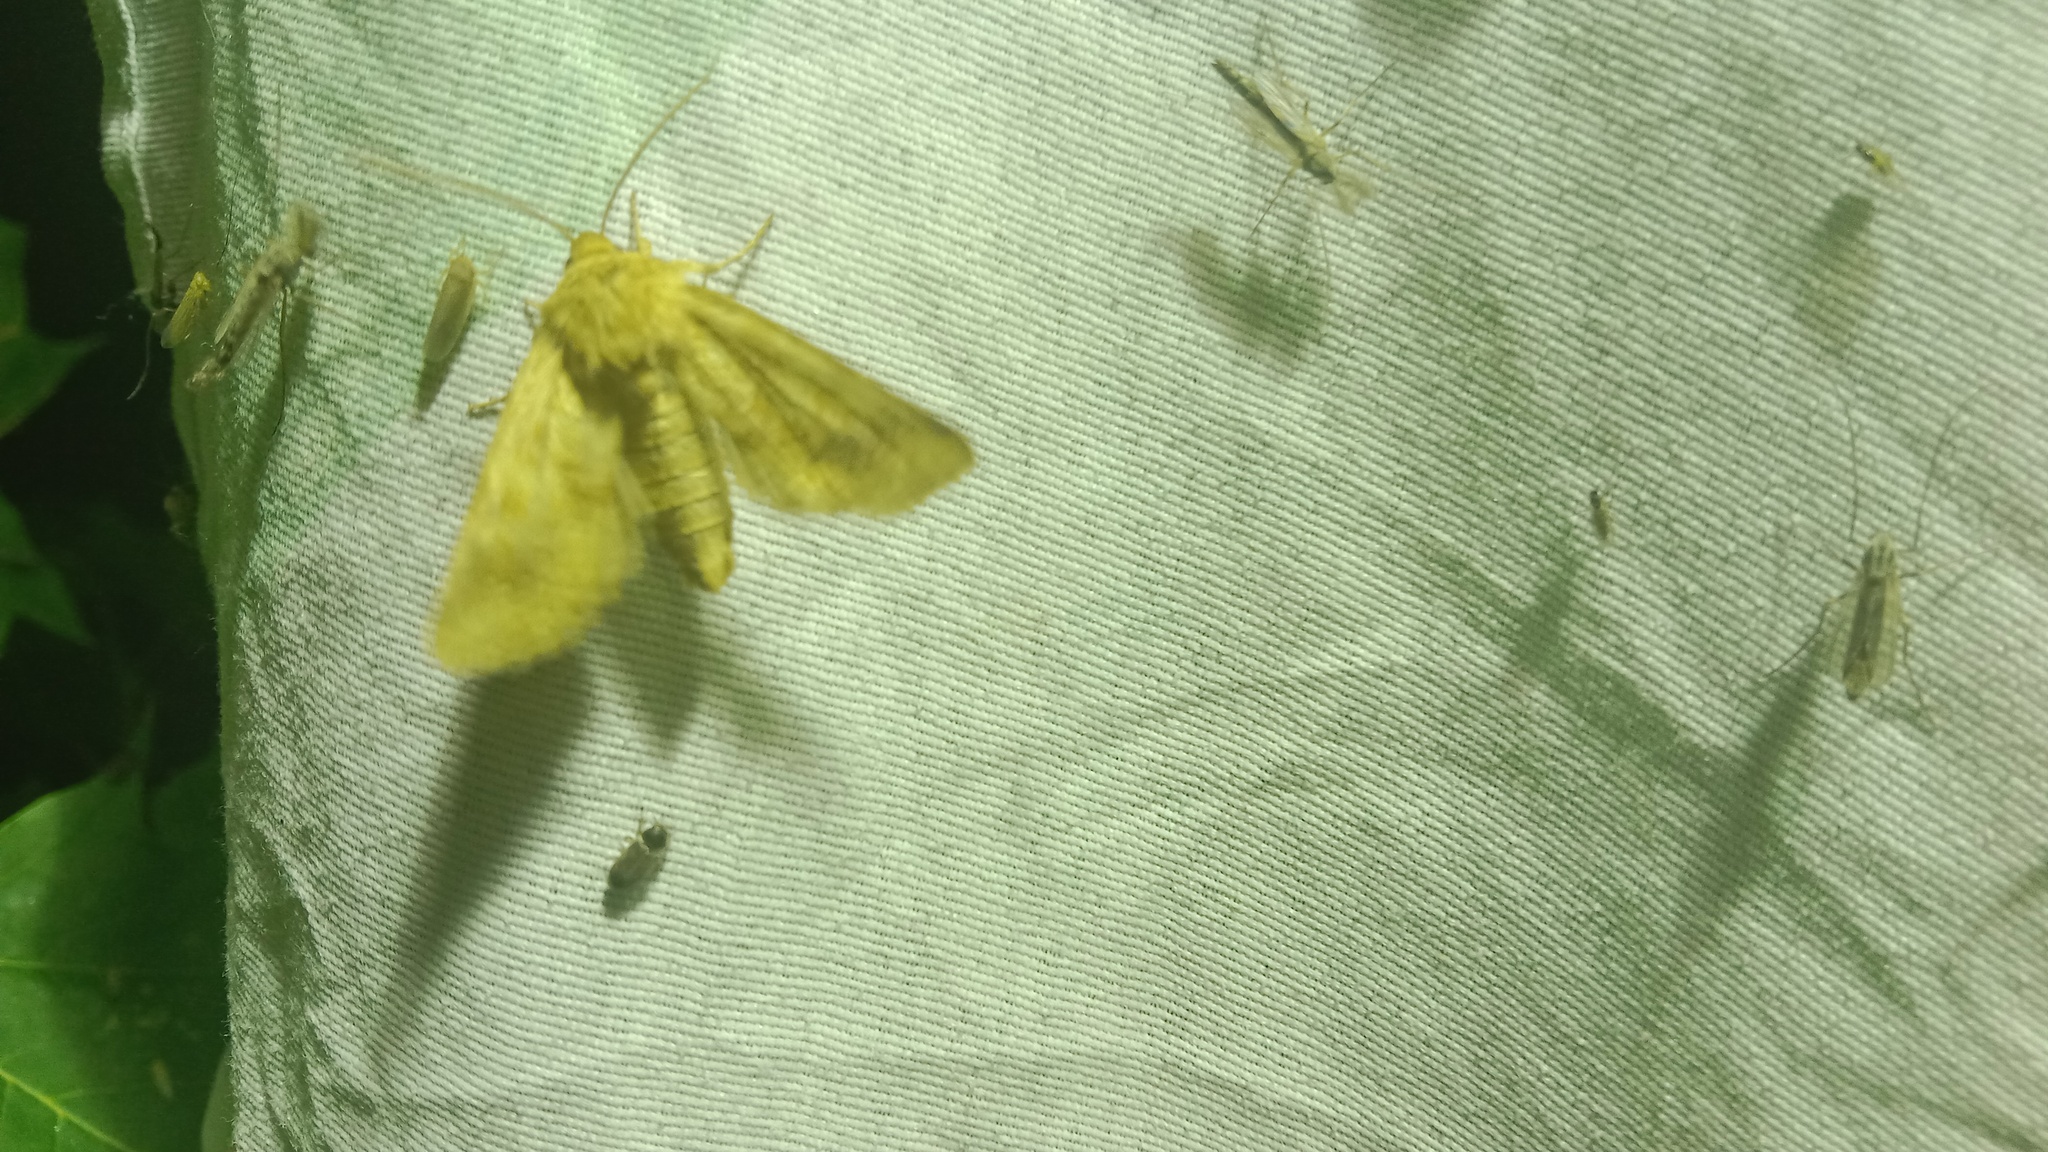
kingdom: Animalia
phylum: Arthropoda
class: Insecta
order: Lepidoptera
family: Noctuidae
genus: Conisania
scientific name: Conisania luteago
